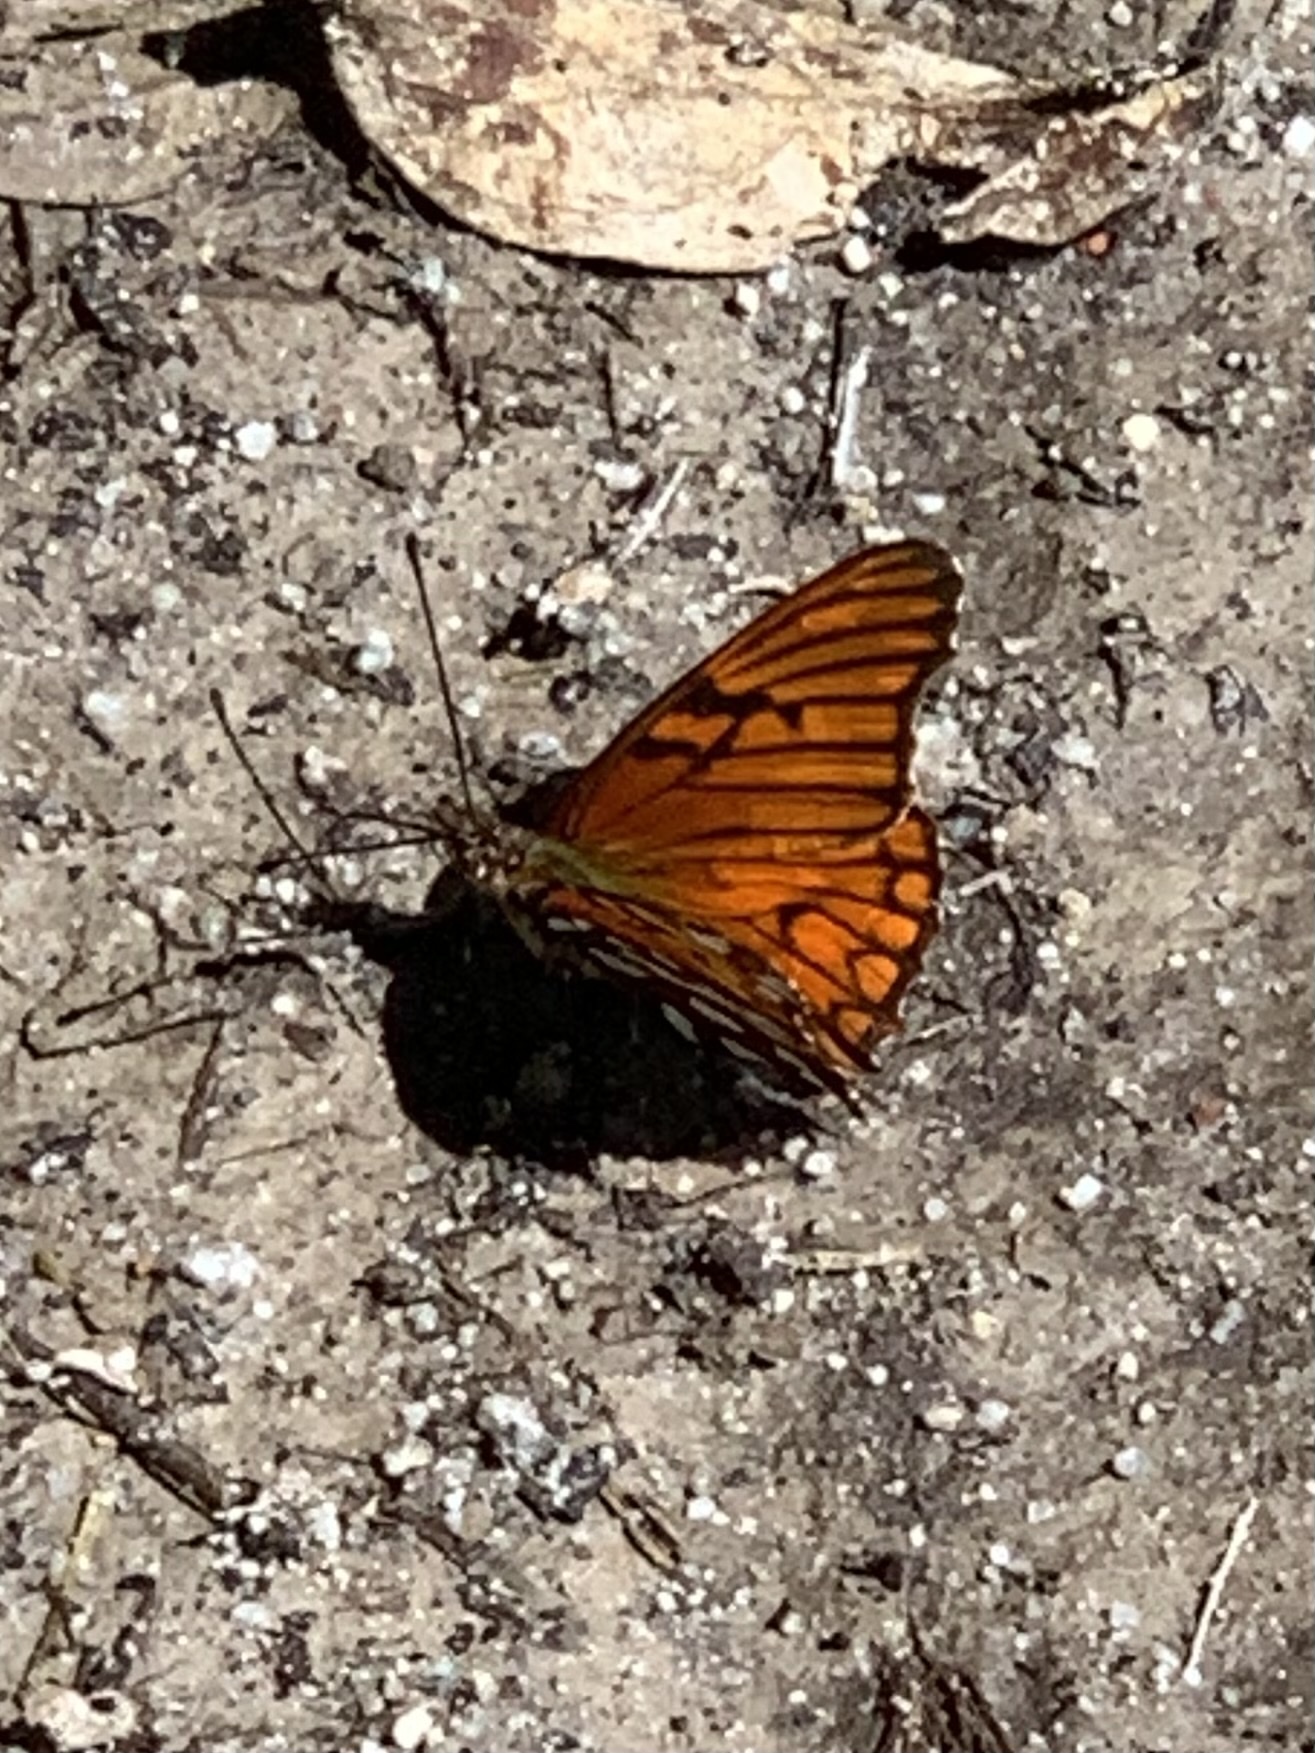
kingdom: Animalia
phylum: Arthropoda
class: Insecta
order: Lepidoptera
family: Nymphalidae
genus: Dione
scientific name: Dione glycera
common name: Andean silverspot
